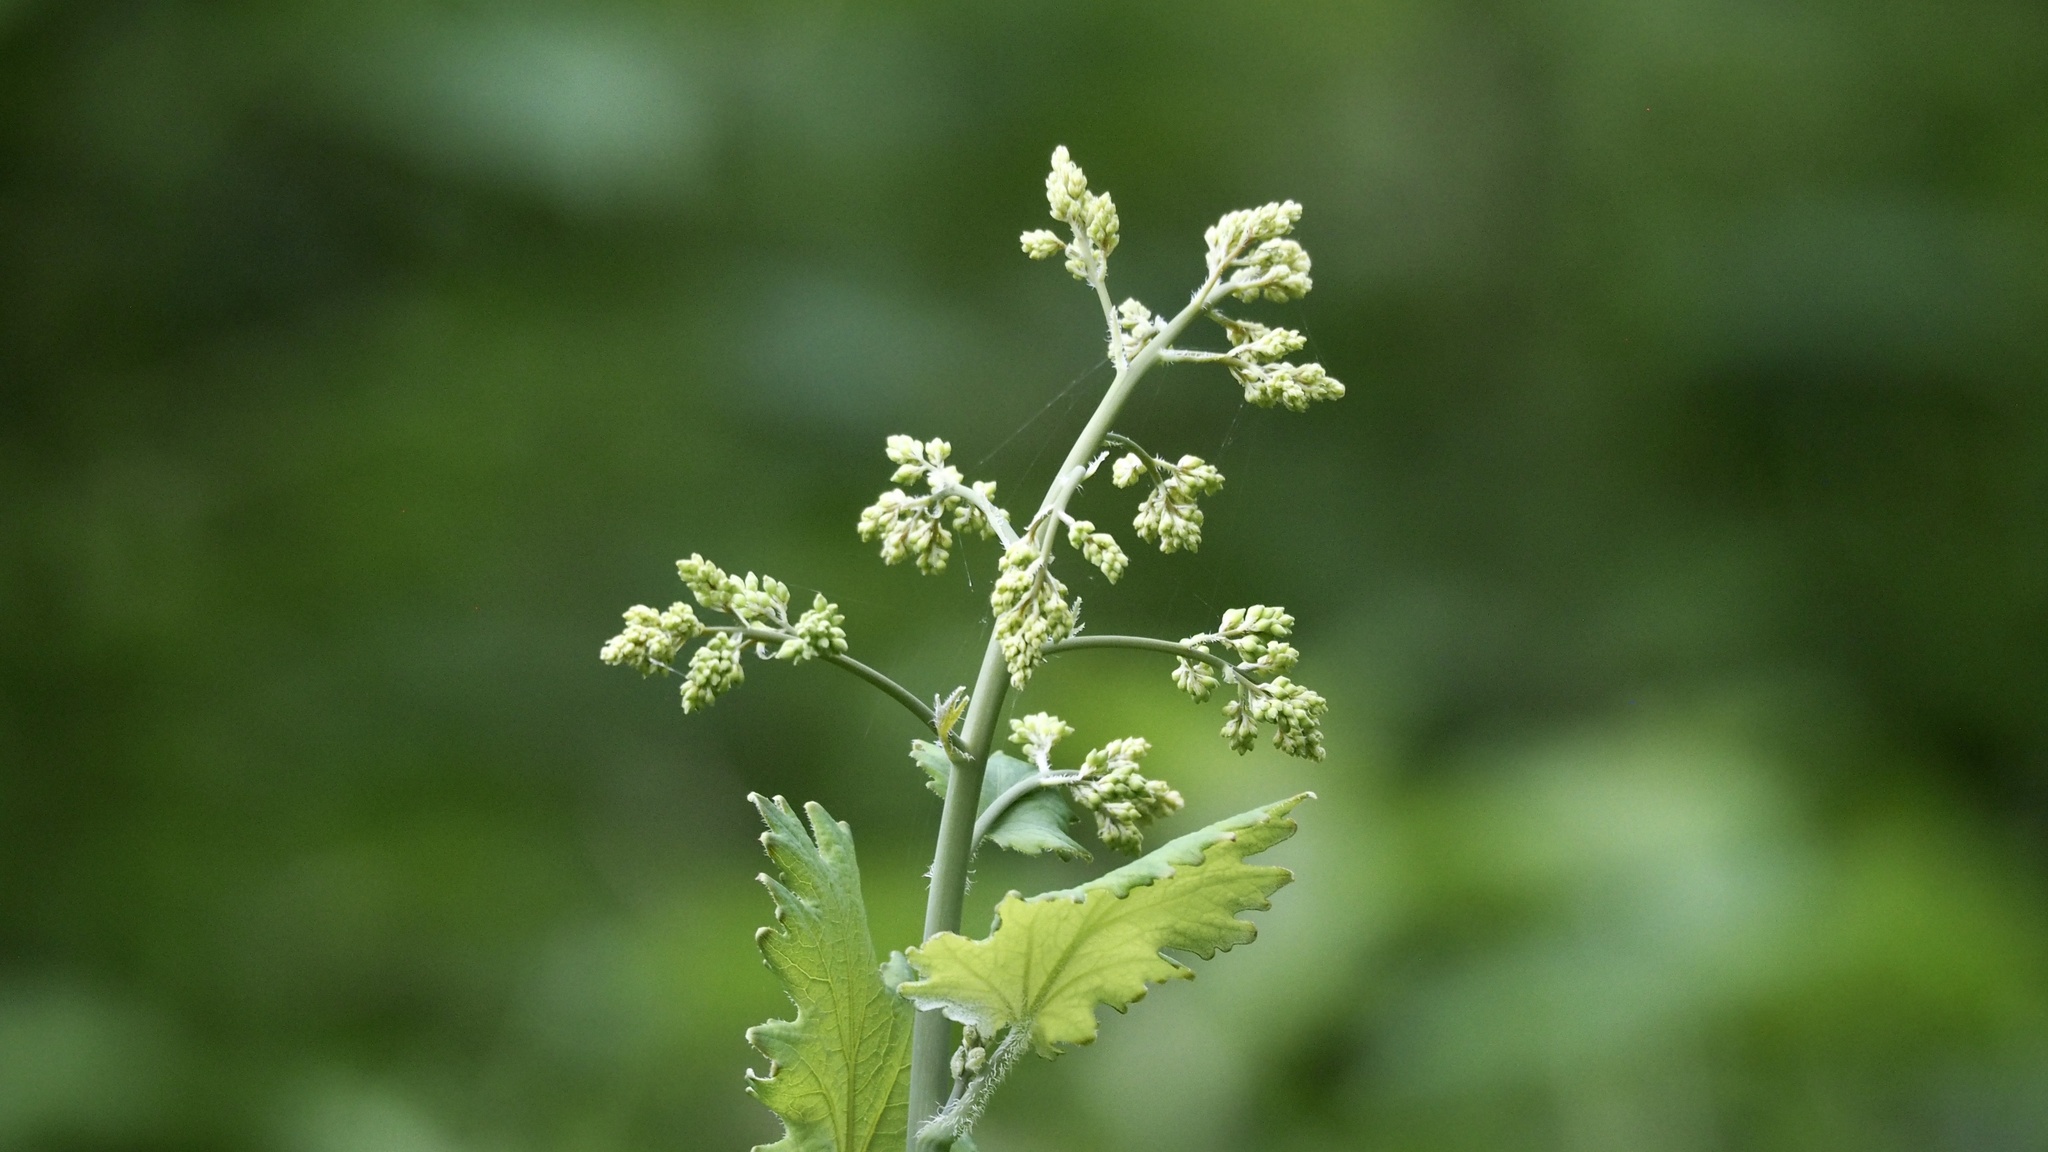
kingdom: Plantae
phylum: Tracheophyta
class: Magnoliopsida
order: Ranunculales
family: Papaveraceae
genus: Macleaya
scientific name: Macleaya cordata
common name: Plume poppy
